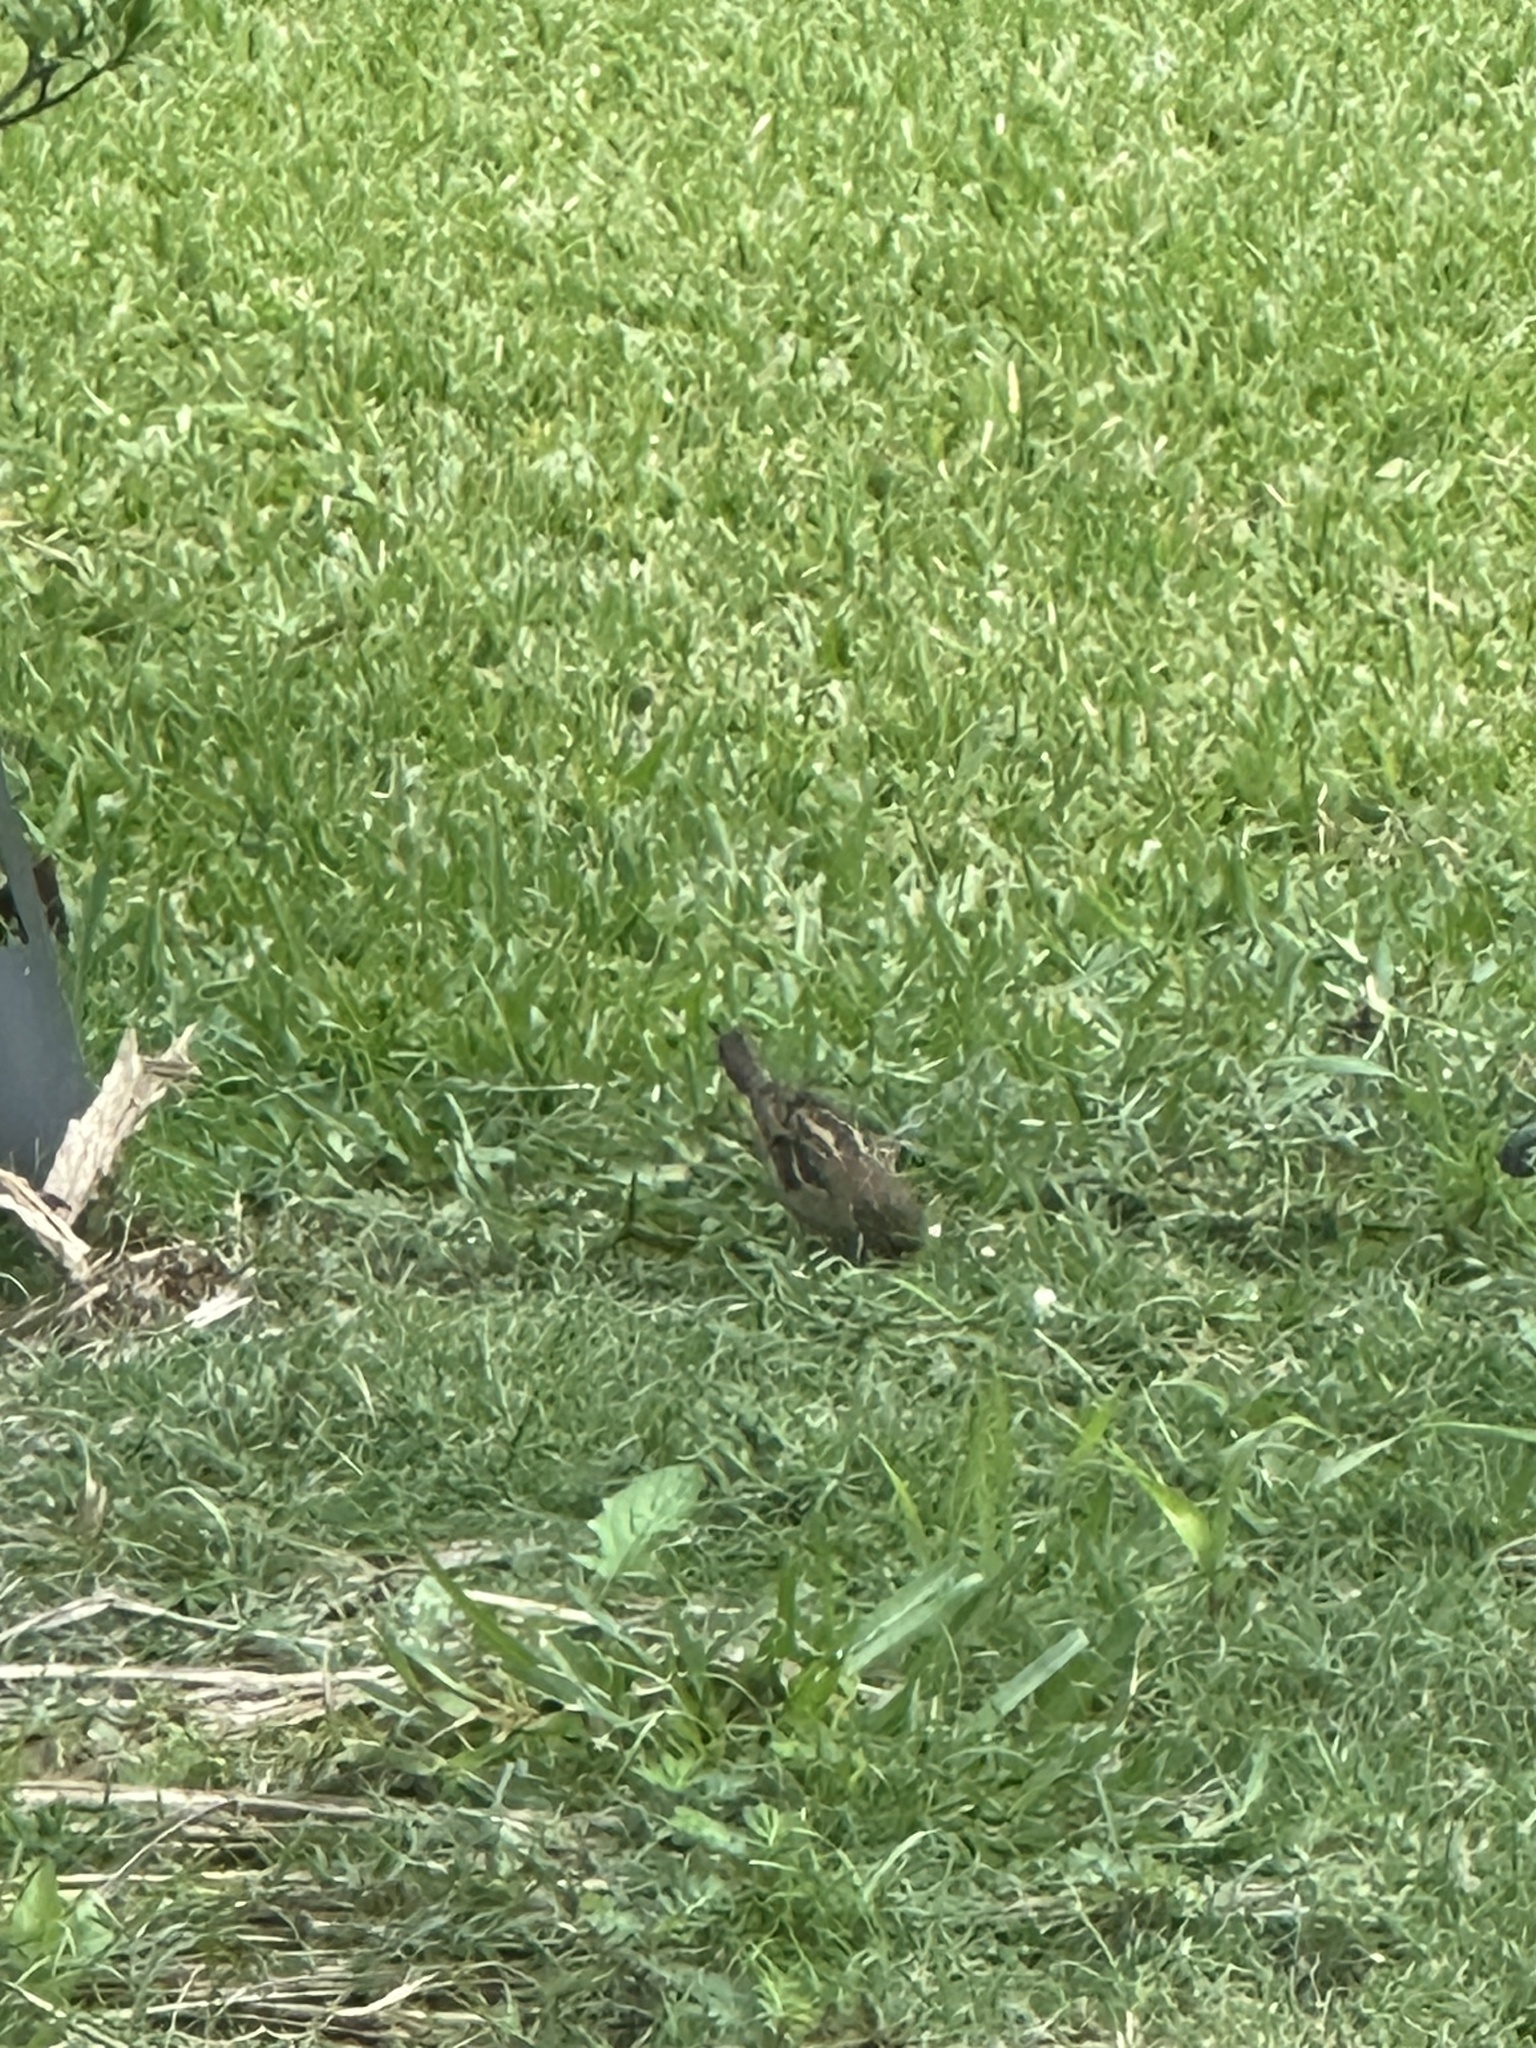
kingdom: Animalia
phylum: Chordata
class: Aves
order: Passeriformes
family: Passeridae
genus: Passer
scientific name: Passer domesticus
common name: House sparrow
